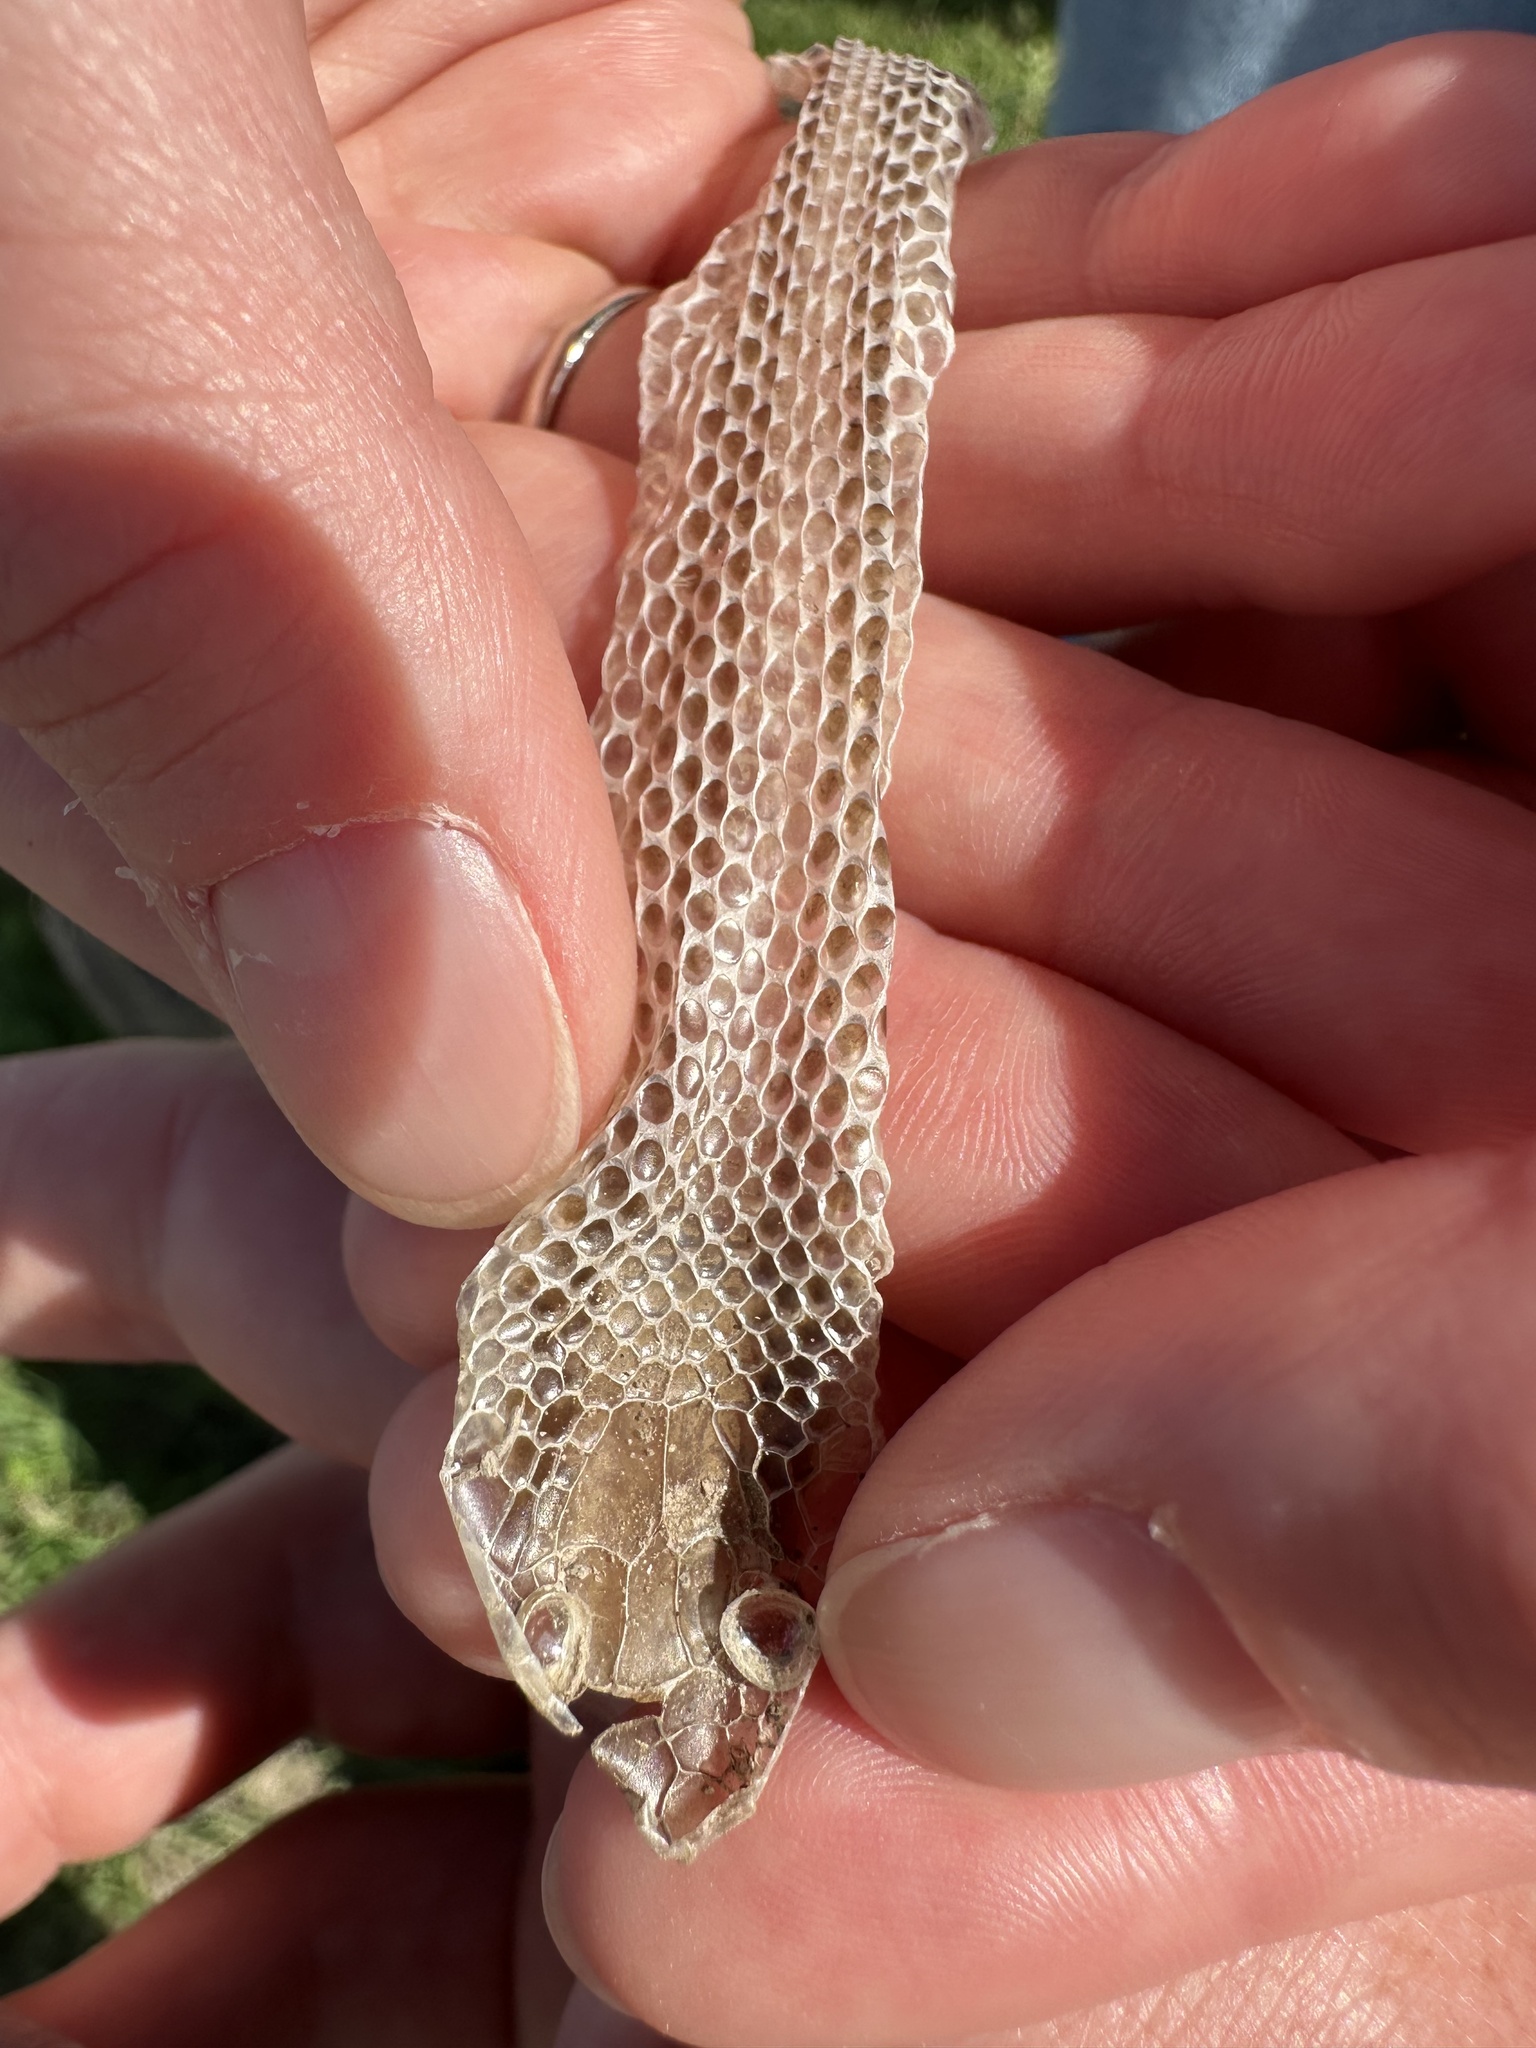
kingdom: Animalia
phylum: Chordata
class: Squamata
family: Colubridae
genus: Salvadora
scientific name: Salvadora lineata
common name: Texas patchnose snake
